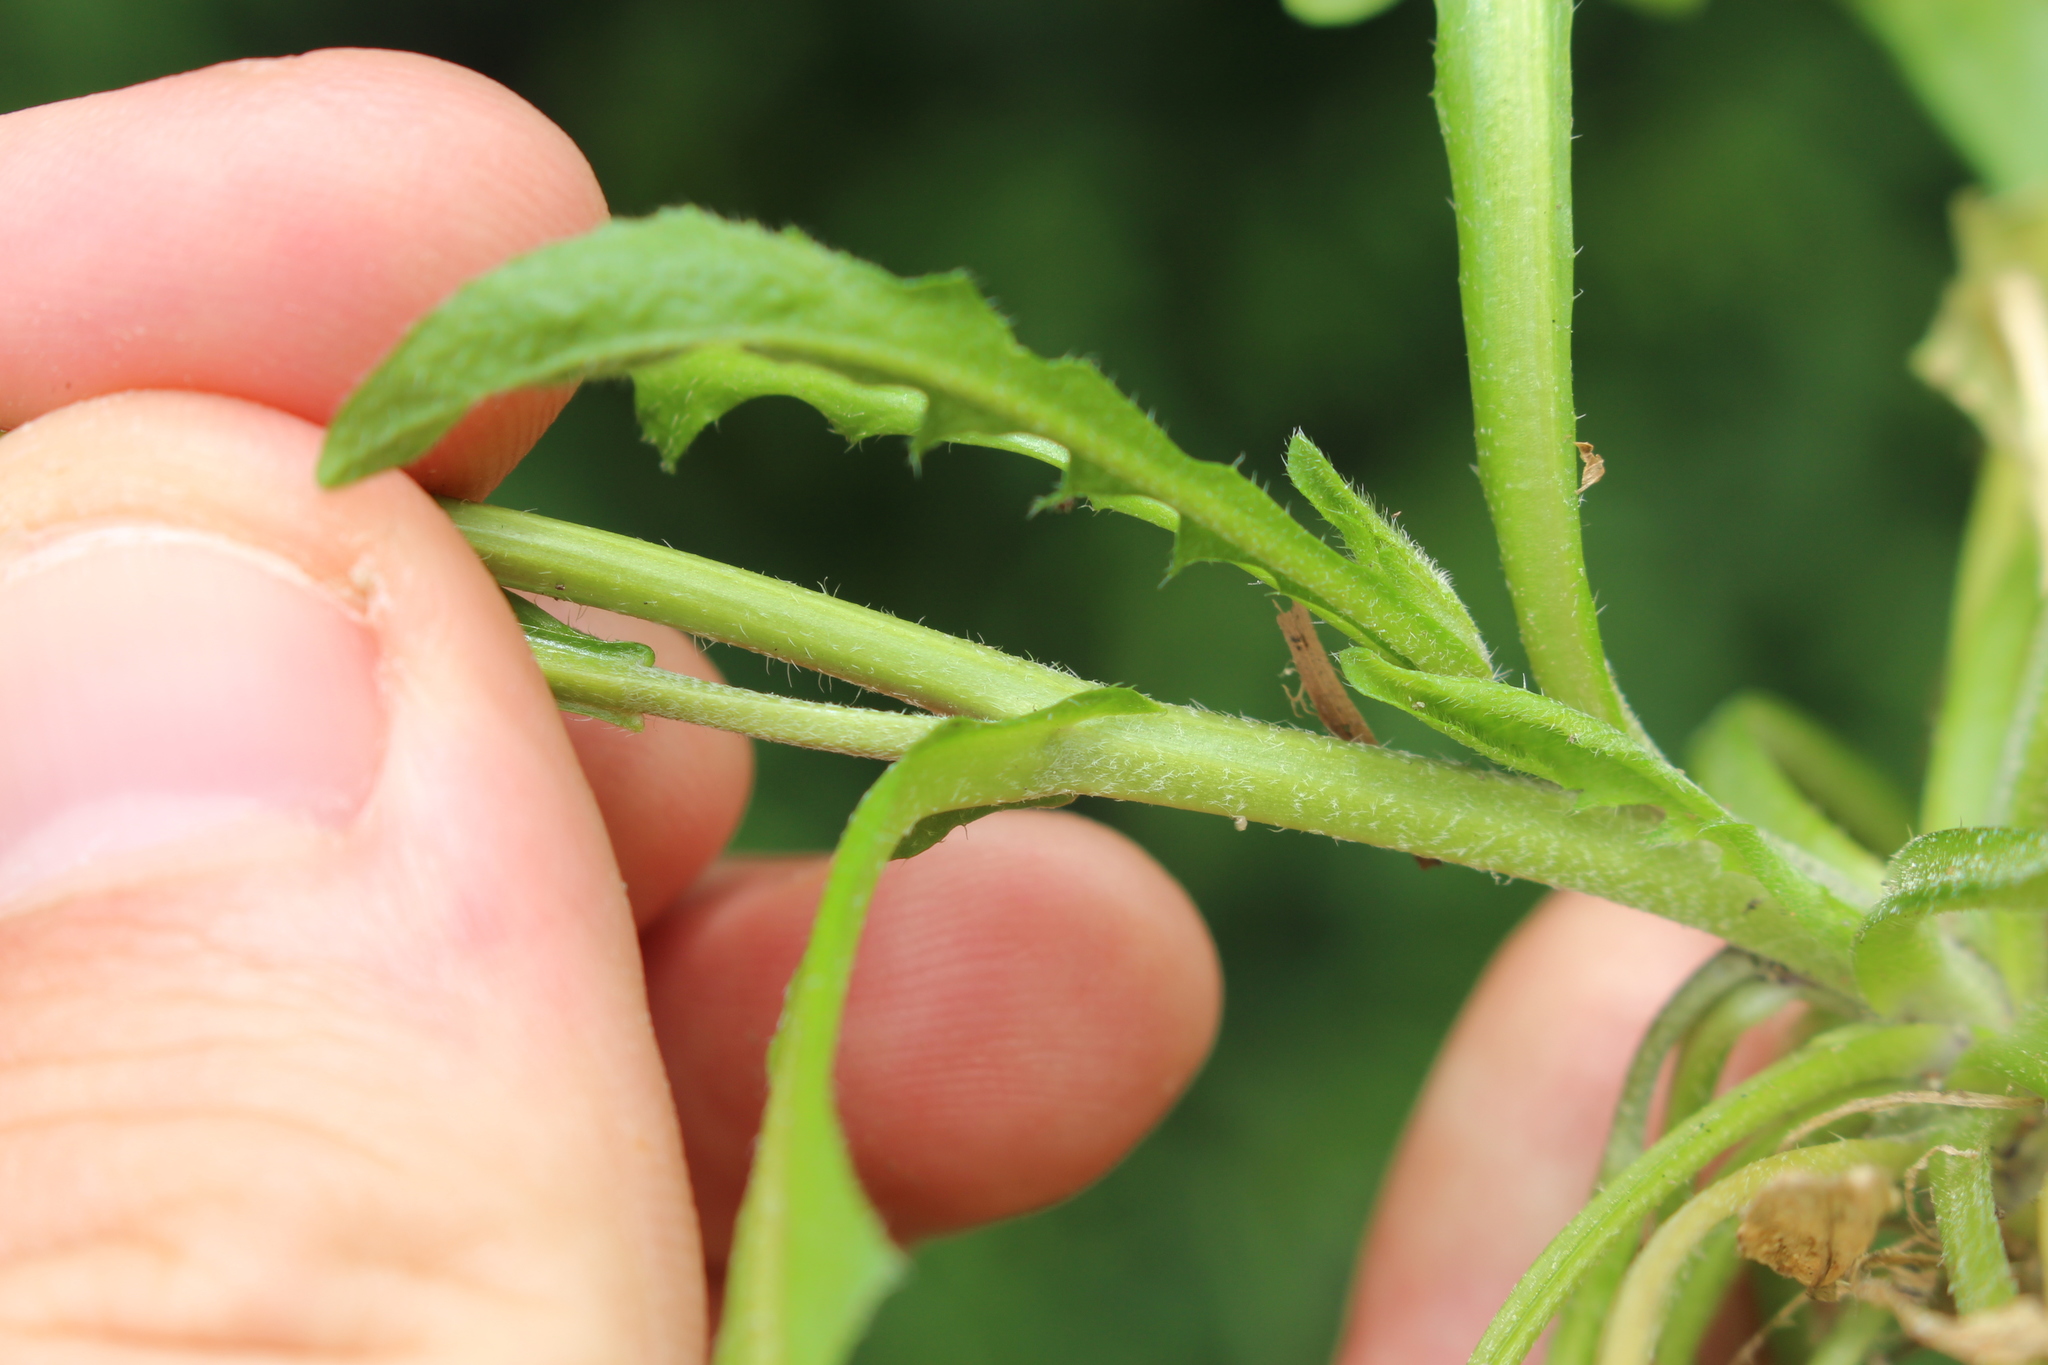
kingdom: Plantae
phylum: Tracheophyta
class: Magnoliopsida
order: Brassicales
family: Brassicaceae
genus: Capsella
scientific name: Capsella bursa-pastoris
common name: Shepherd's purse
